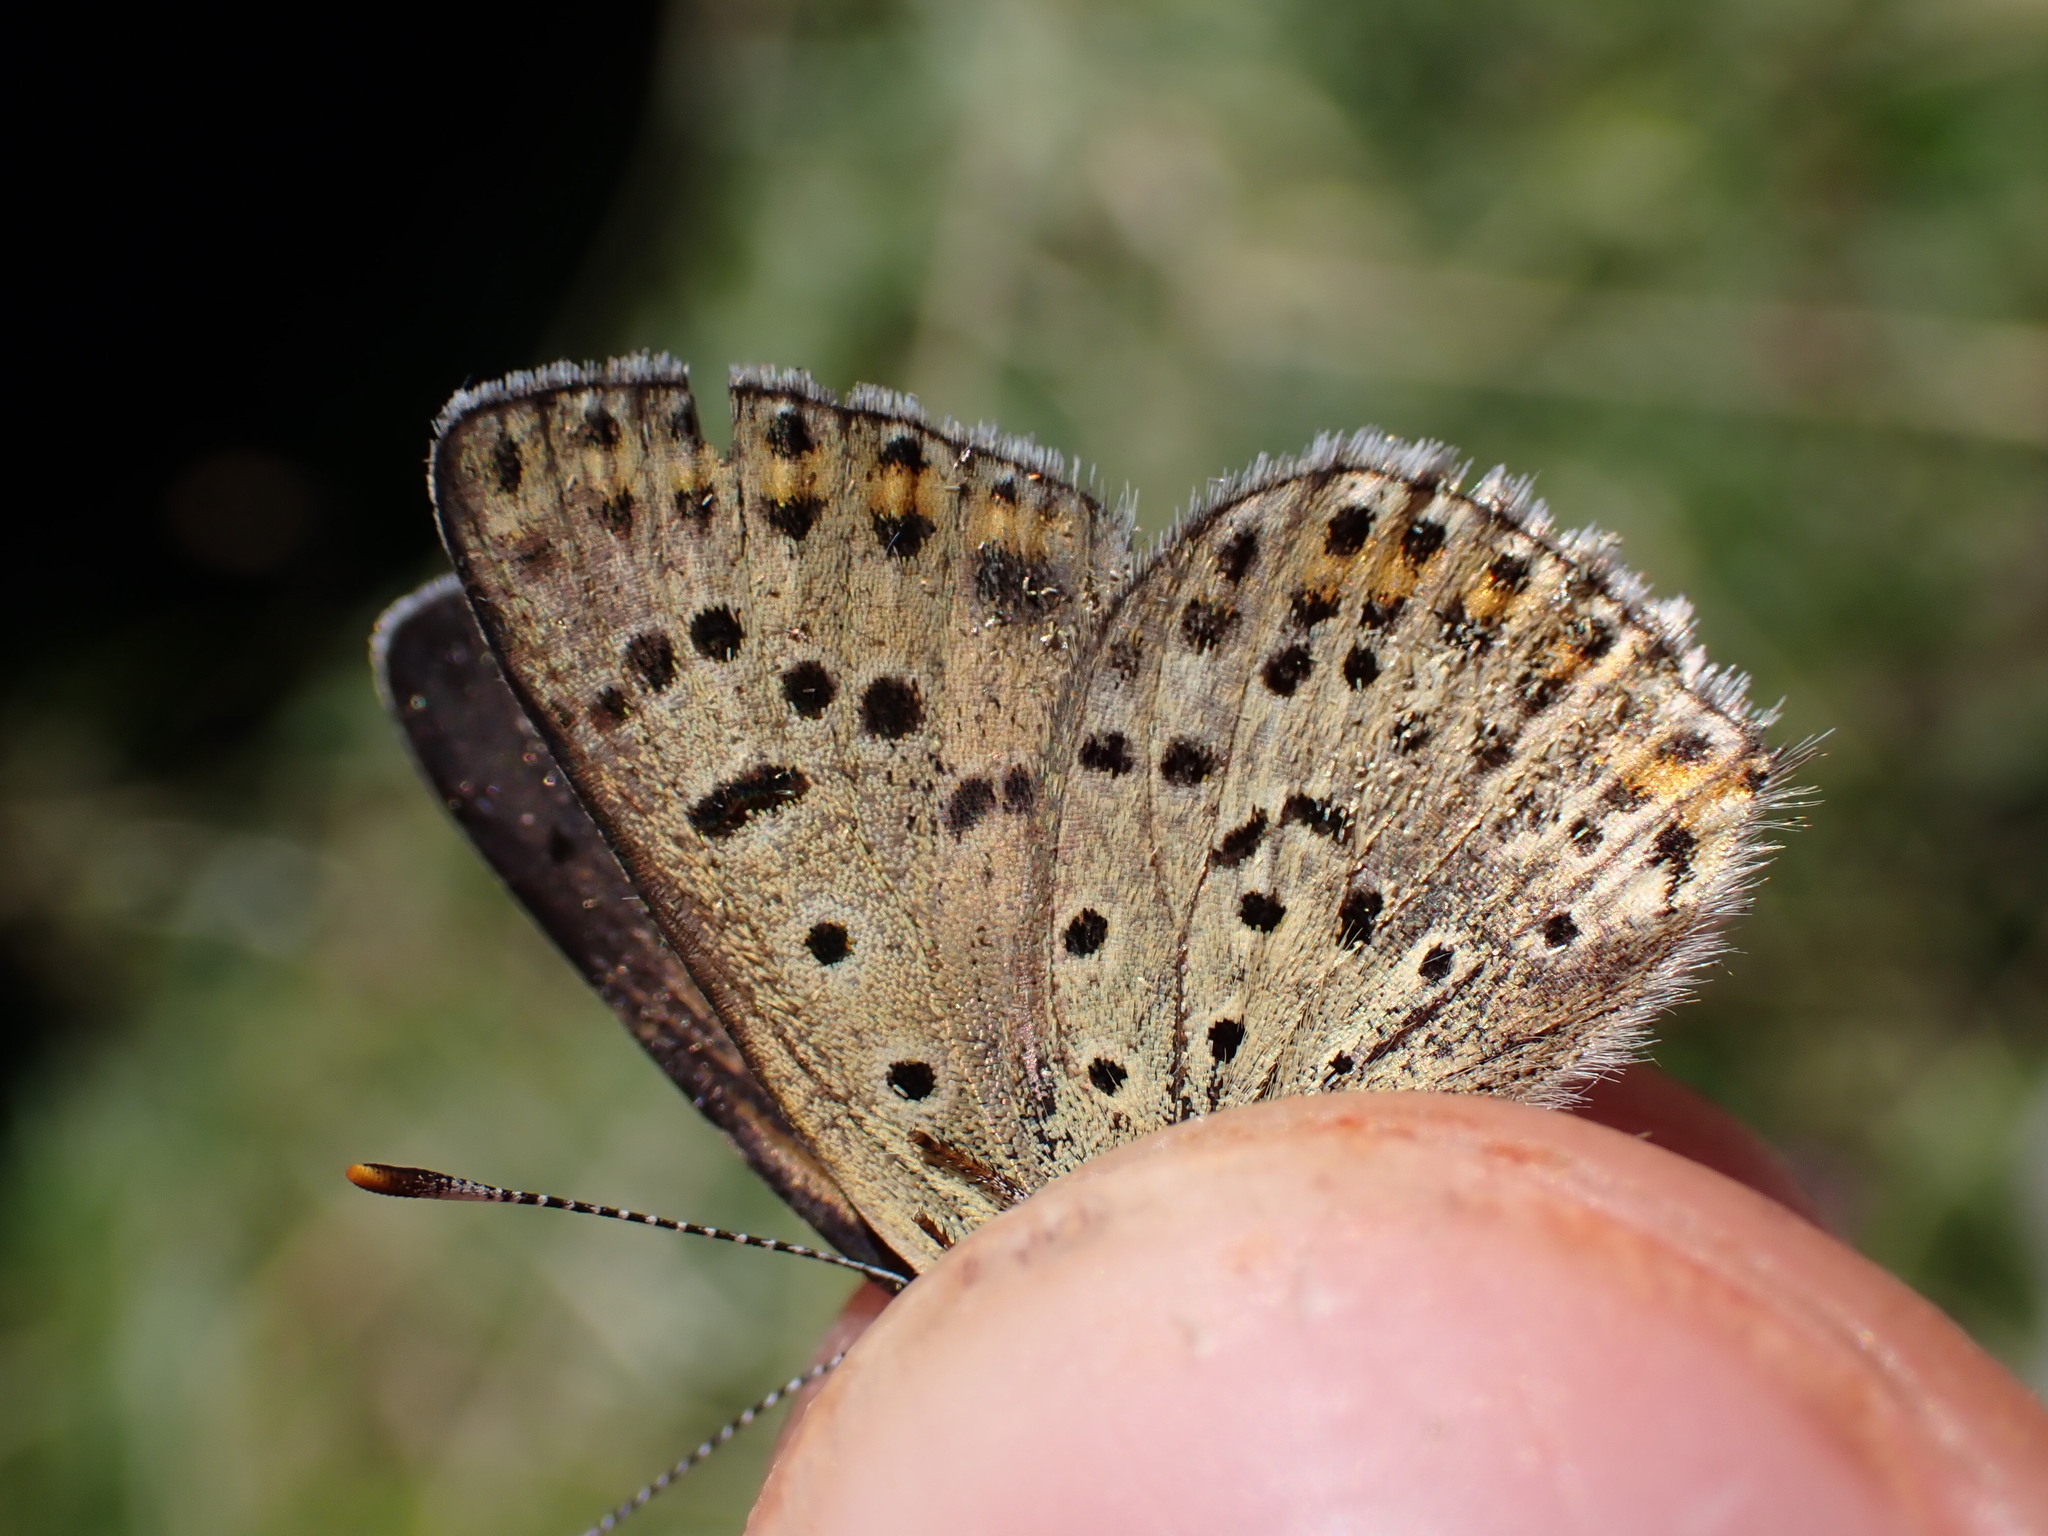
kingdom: Animalia
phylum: Arthropoda
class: Insecta
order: Lepidoptera
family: Lycaenidae
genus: Loweia
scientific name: Loweia tityrus
